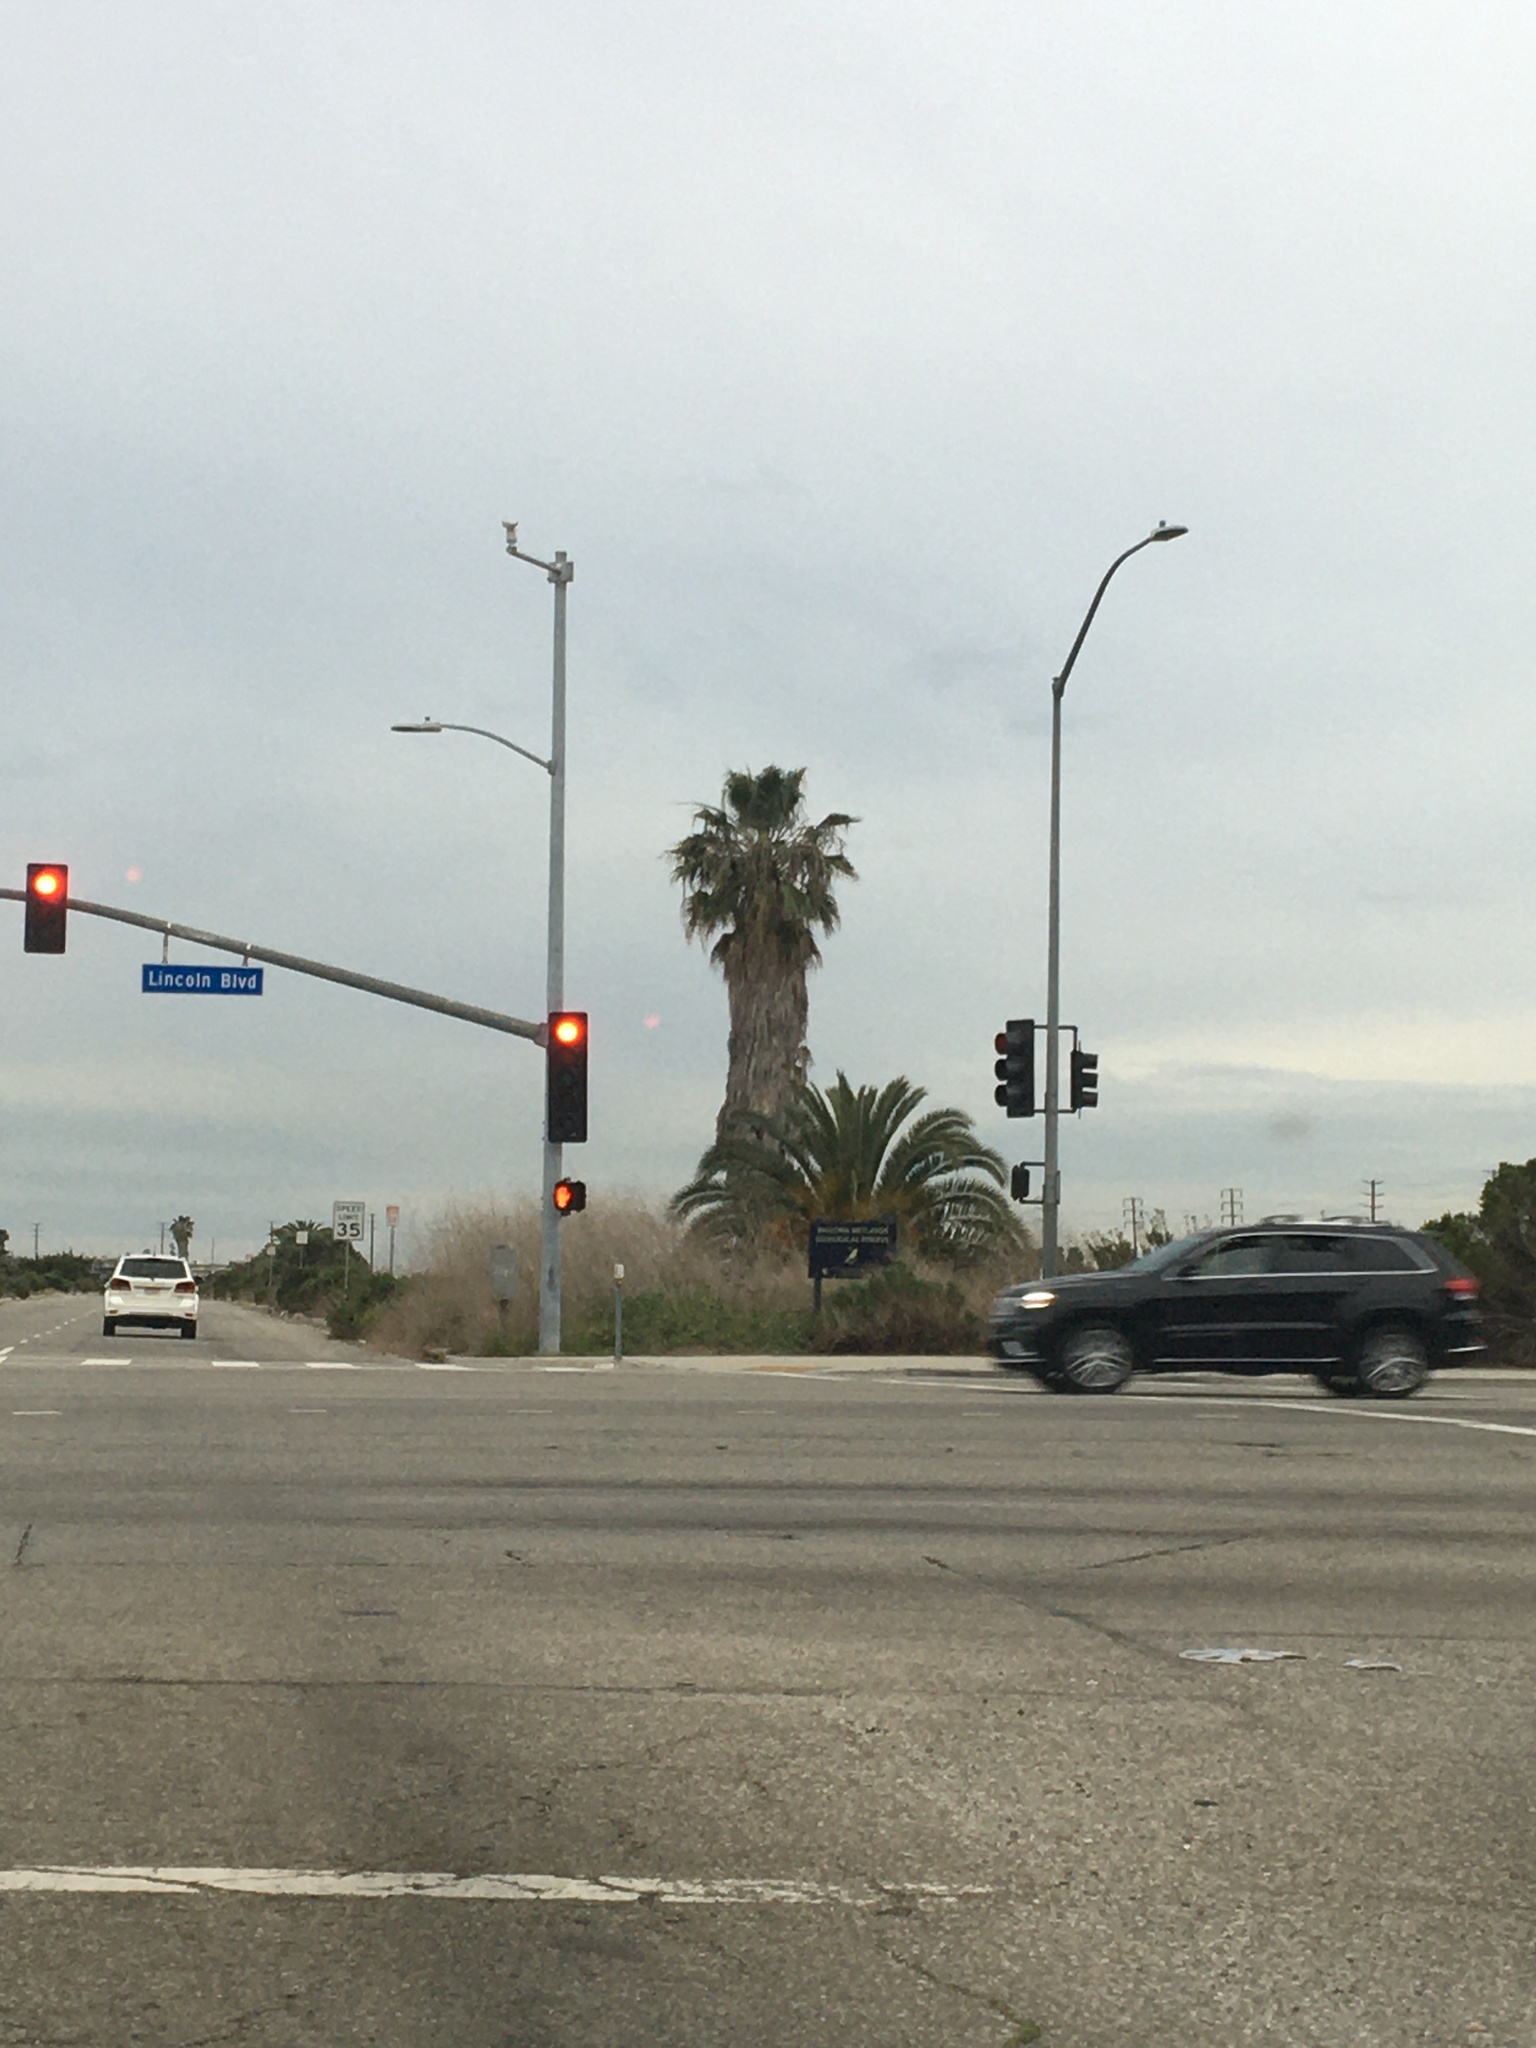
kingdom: Plantae
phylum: Tracheophyta
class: Liliopsida
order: Arecales
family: Arecaceae
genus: Phoenix
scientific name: Phoenix canariensis
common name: Canary island date palm
